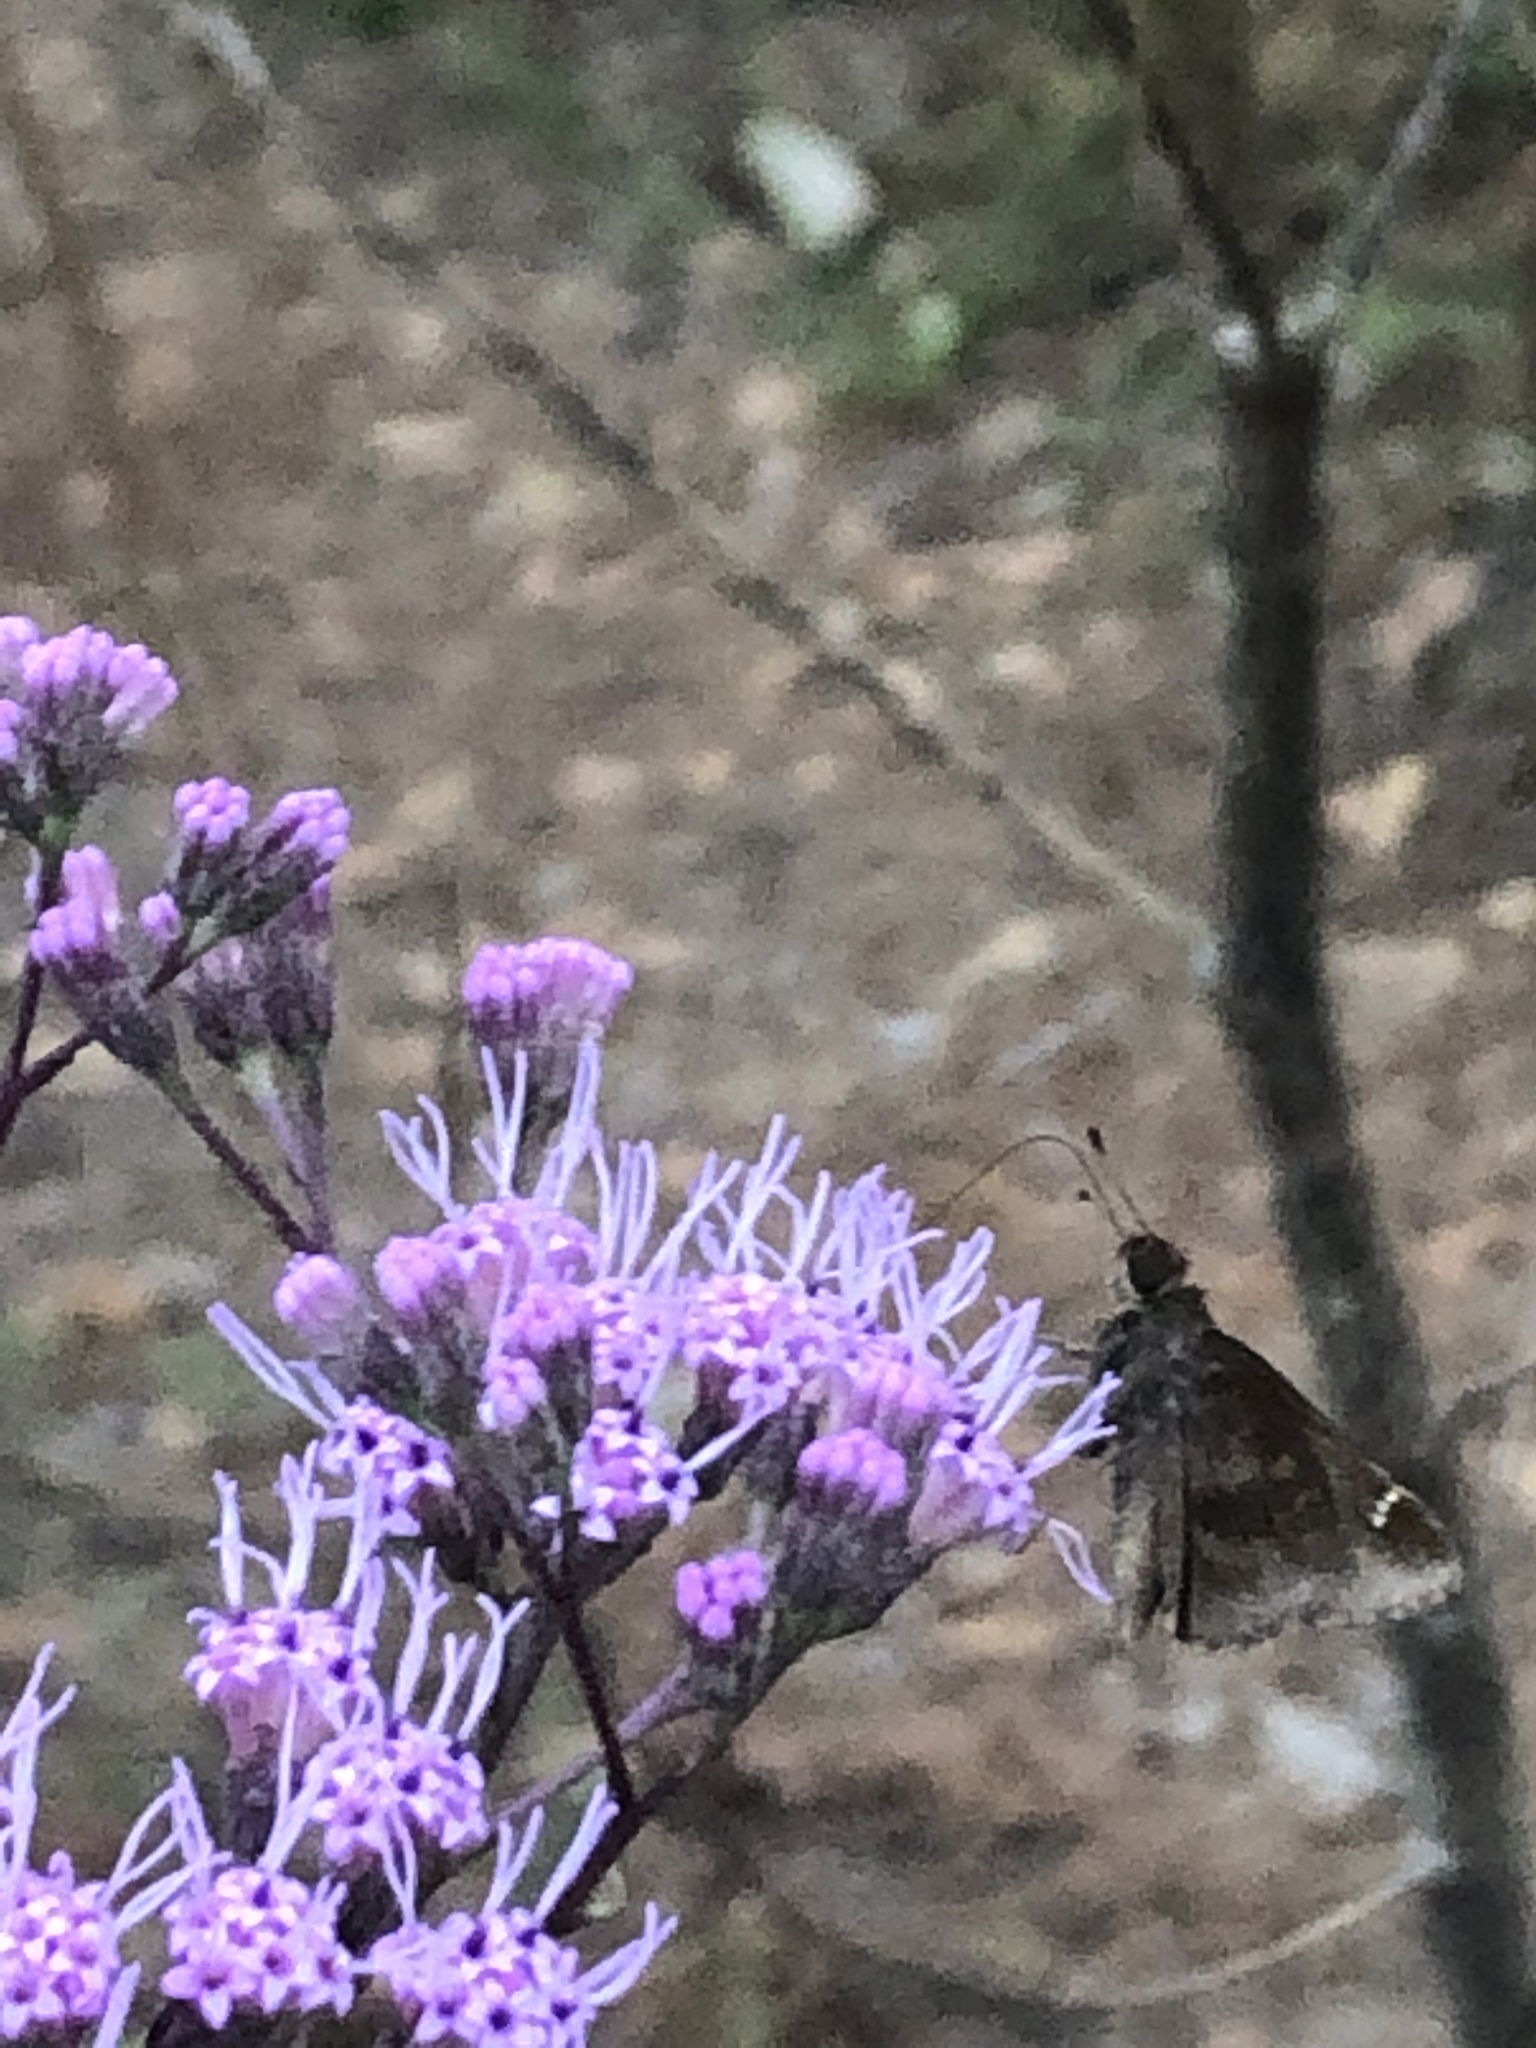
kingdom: Animalia
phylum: Arthropoda
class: Insecta
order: Lepidoptera
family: Hesperiidae
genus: Lerema
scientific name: Lerema accius
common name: Clouded skipper
